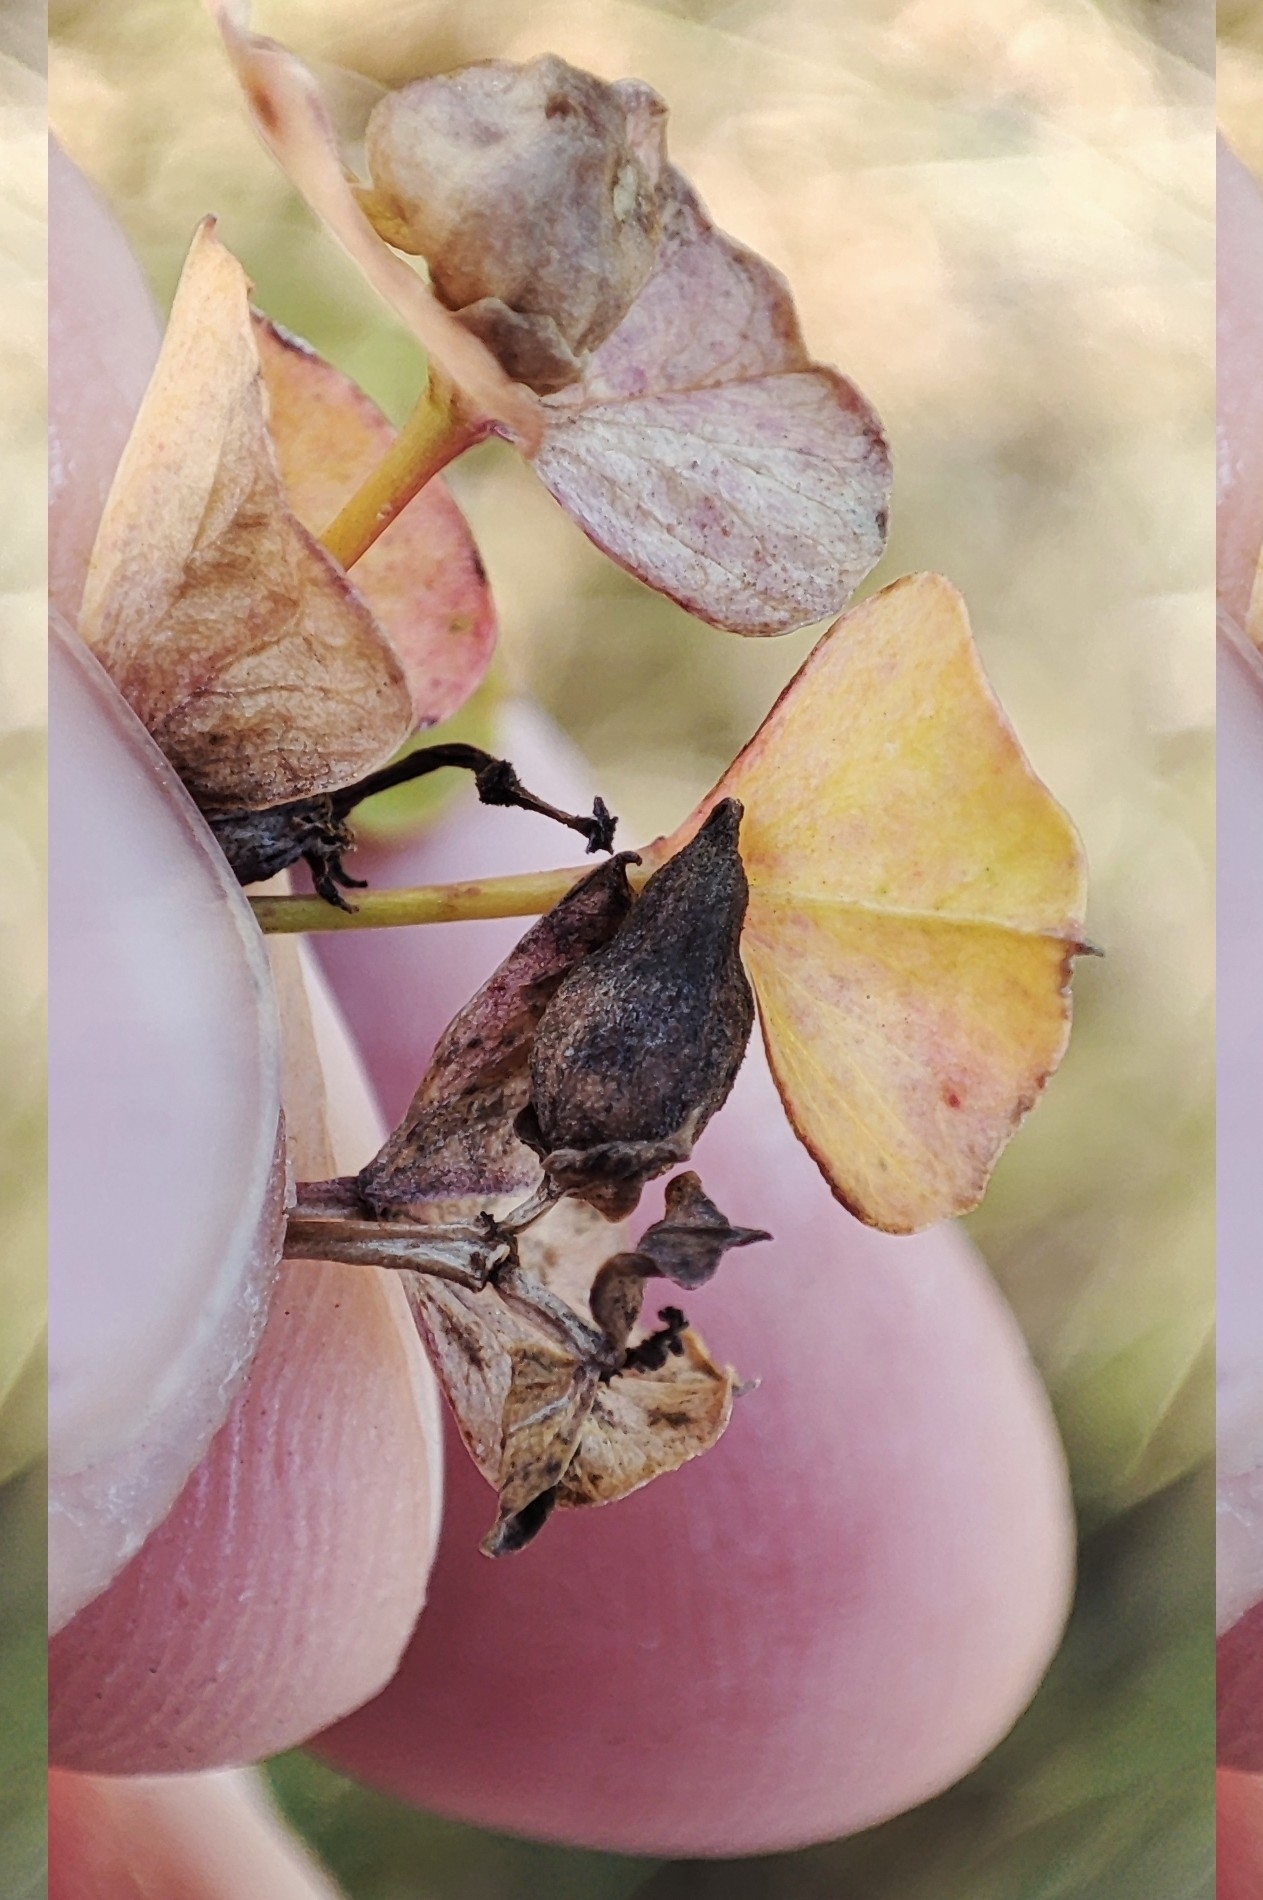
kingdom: Plantae
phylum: Tracheophyta
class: Magnoliopsida
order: Malpighiales
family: Euphorbiaceae
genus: Euphorbia
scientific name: Euphorbia virgata
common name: Leafy spurge
